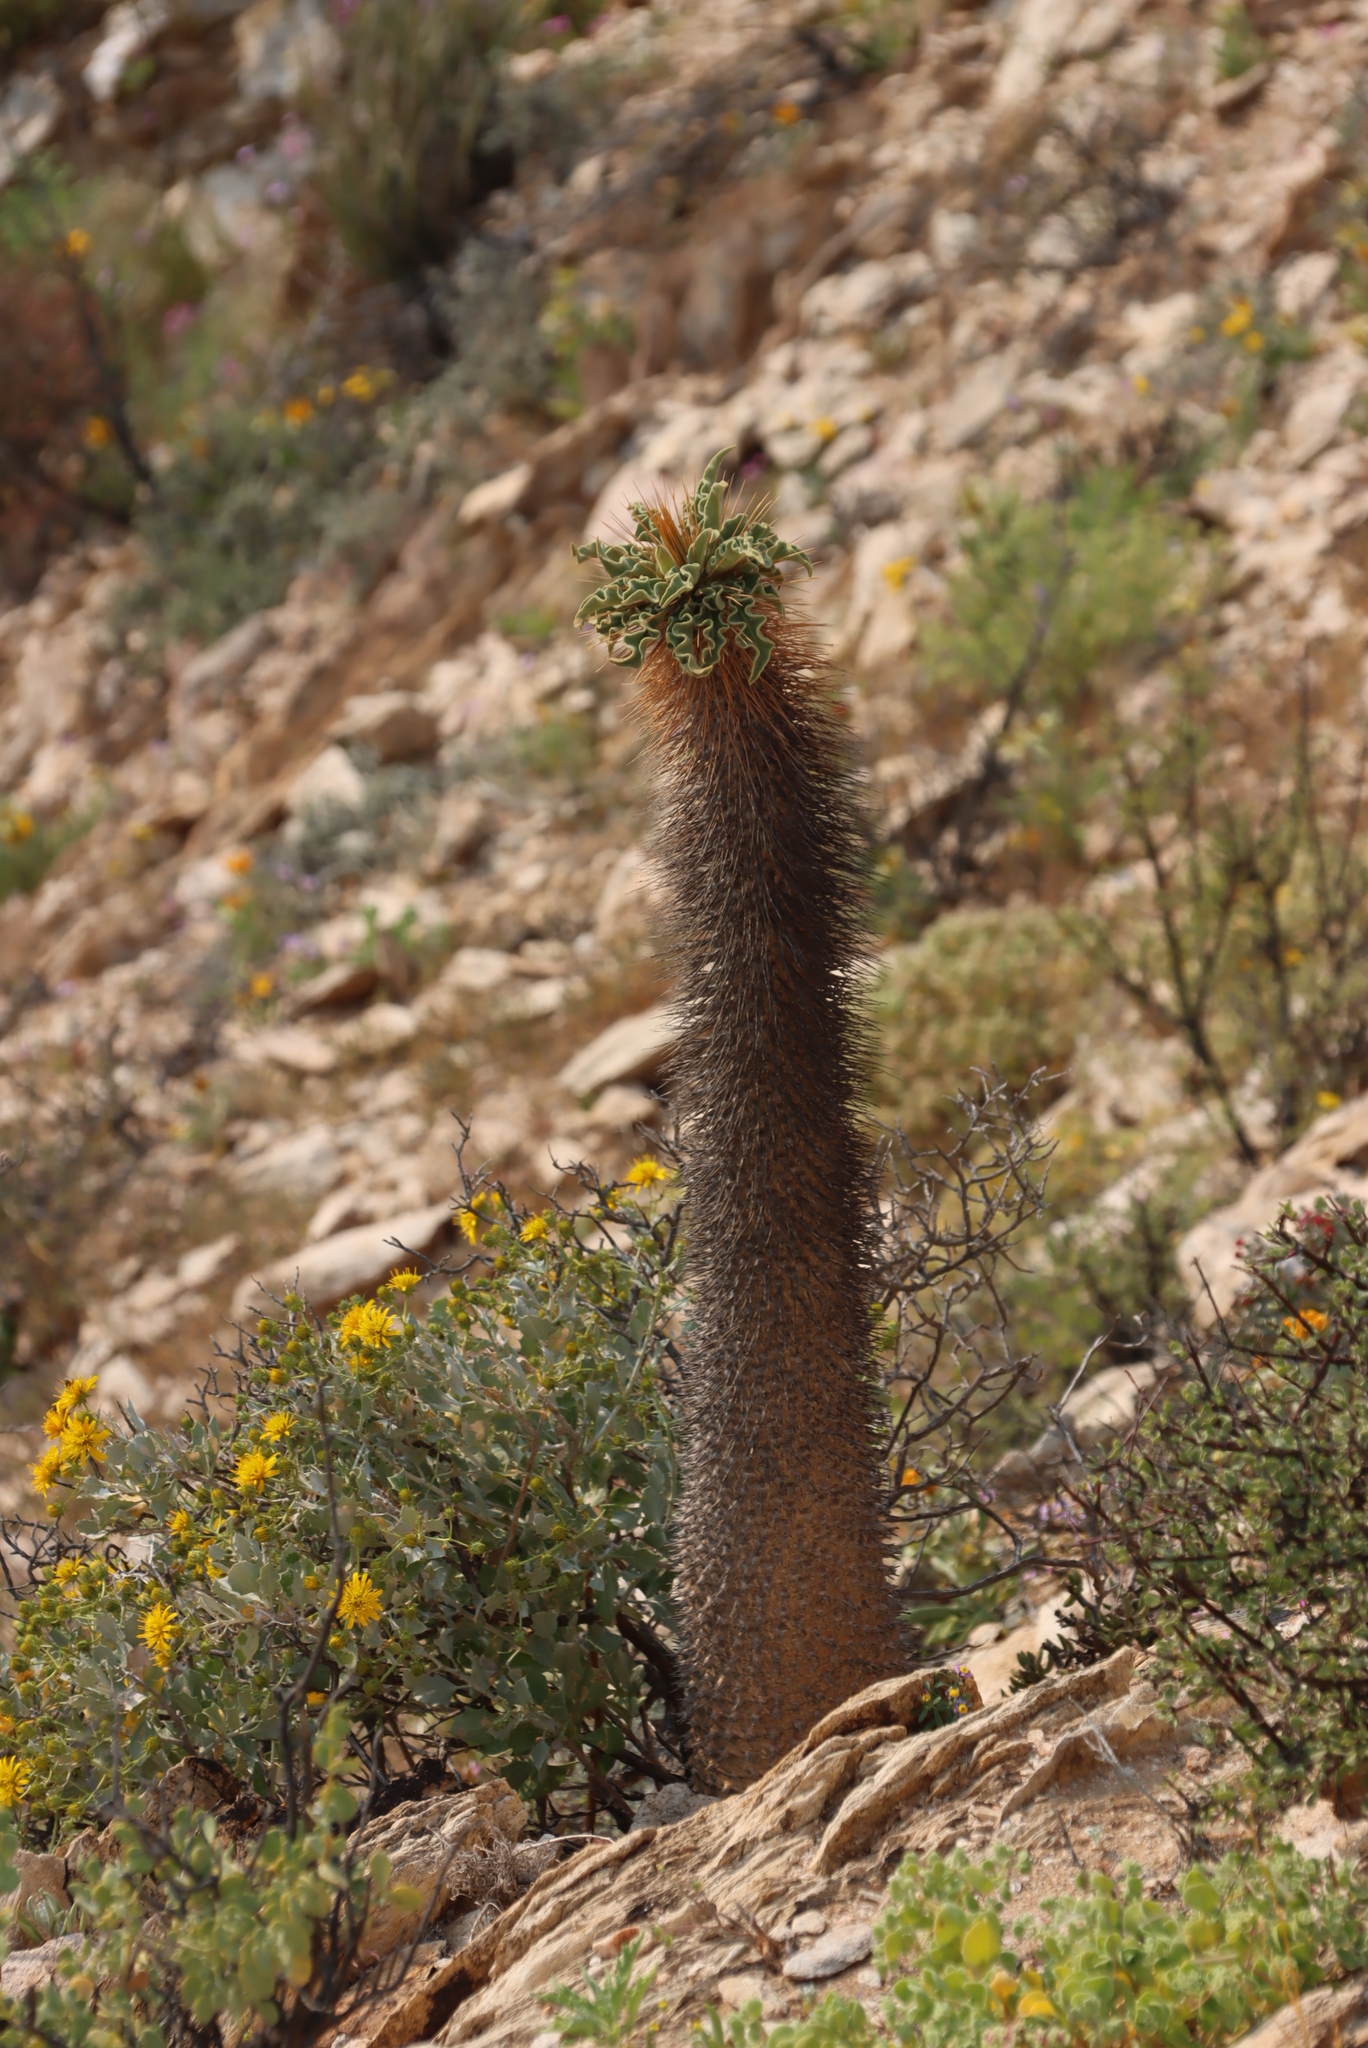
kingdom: Plantae
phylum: Tracheophyta
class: Magnoliopsida
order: Gentianales
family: Apocynaceae
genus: Pachypodium
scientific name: Pachypodium namaquanum
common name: Elephant's trunk
